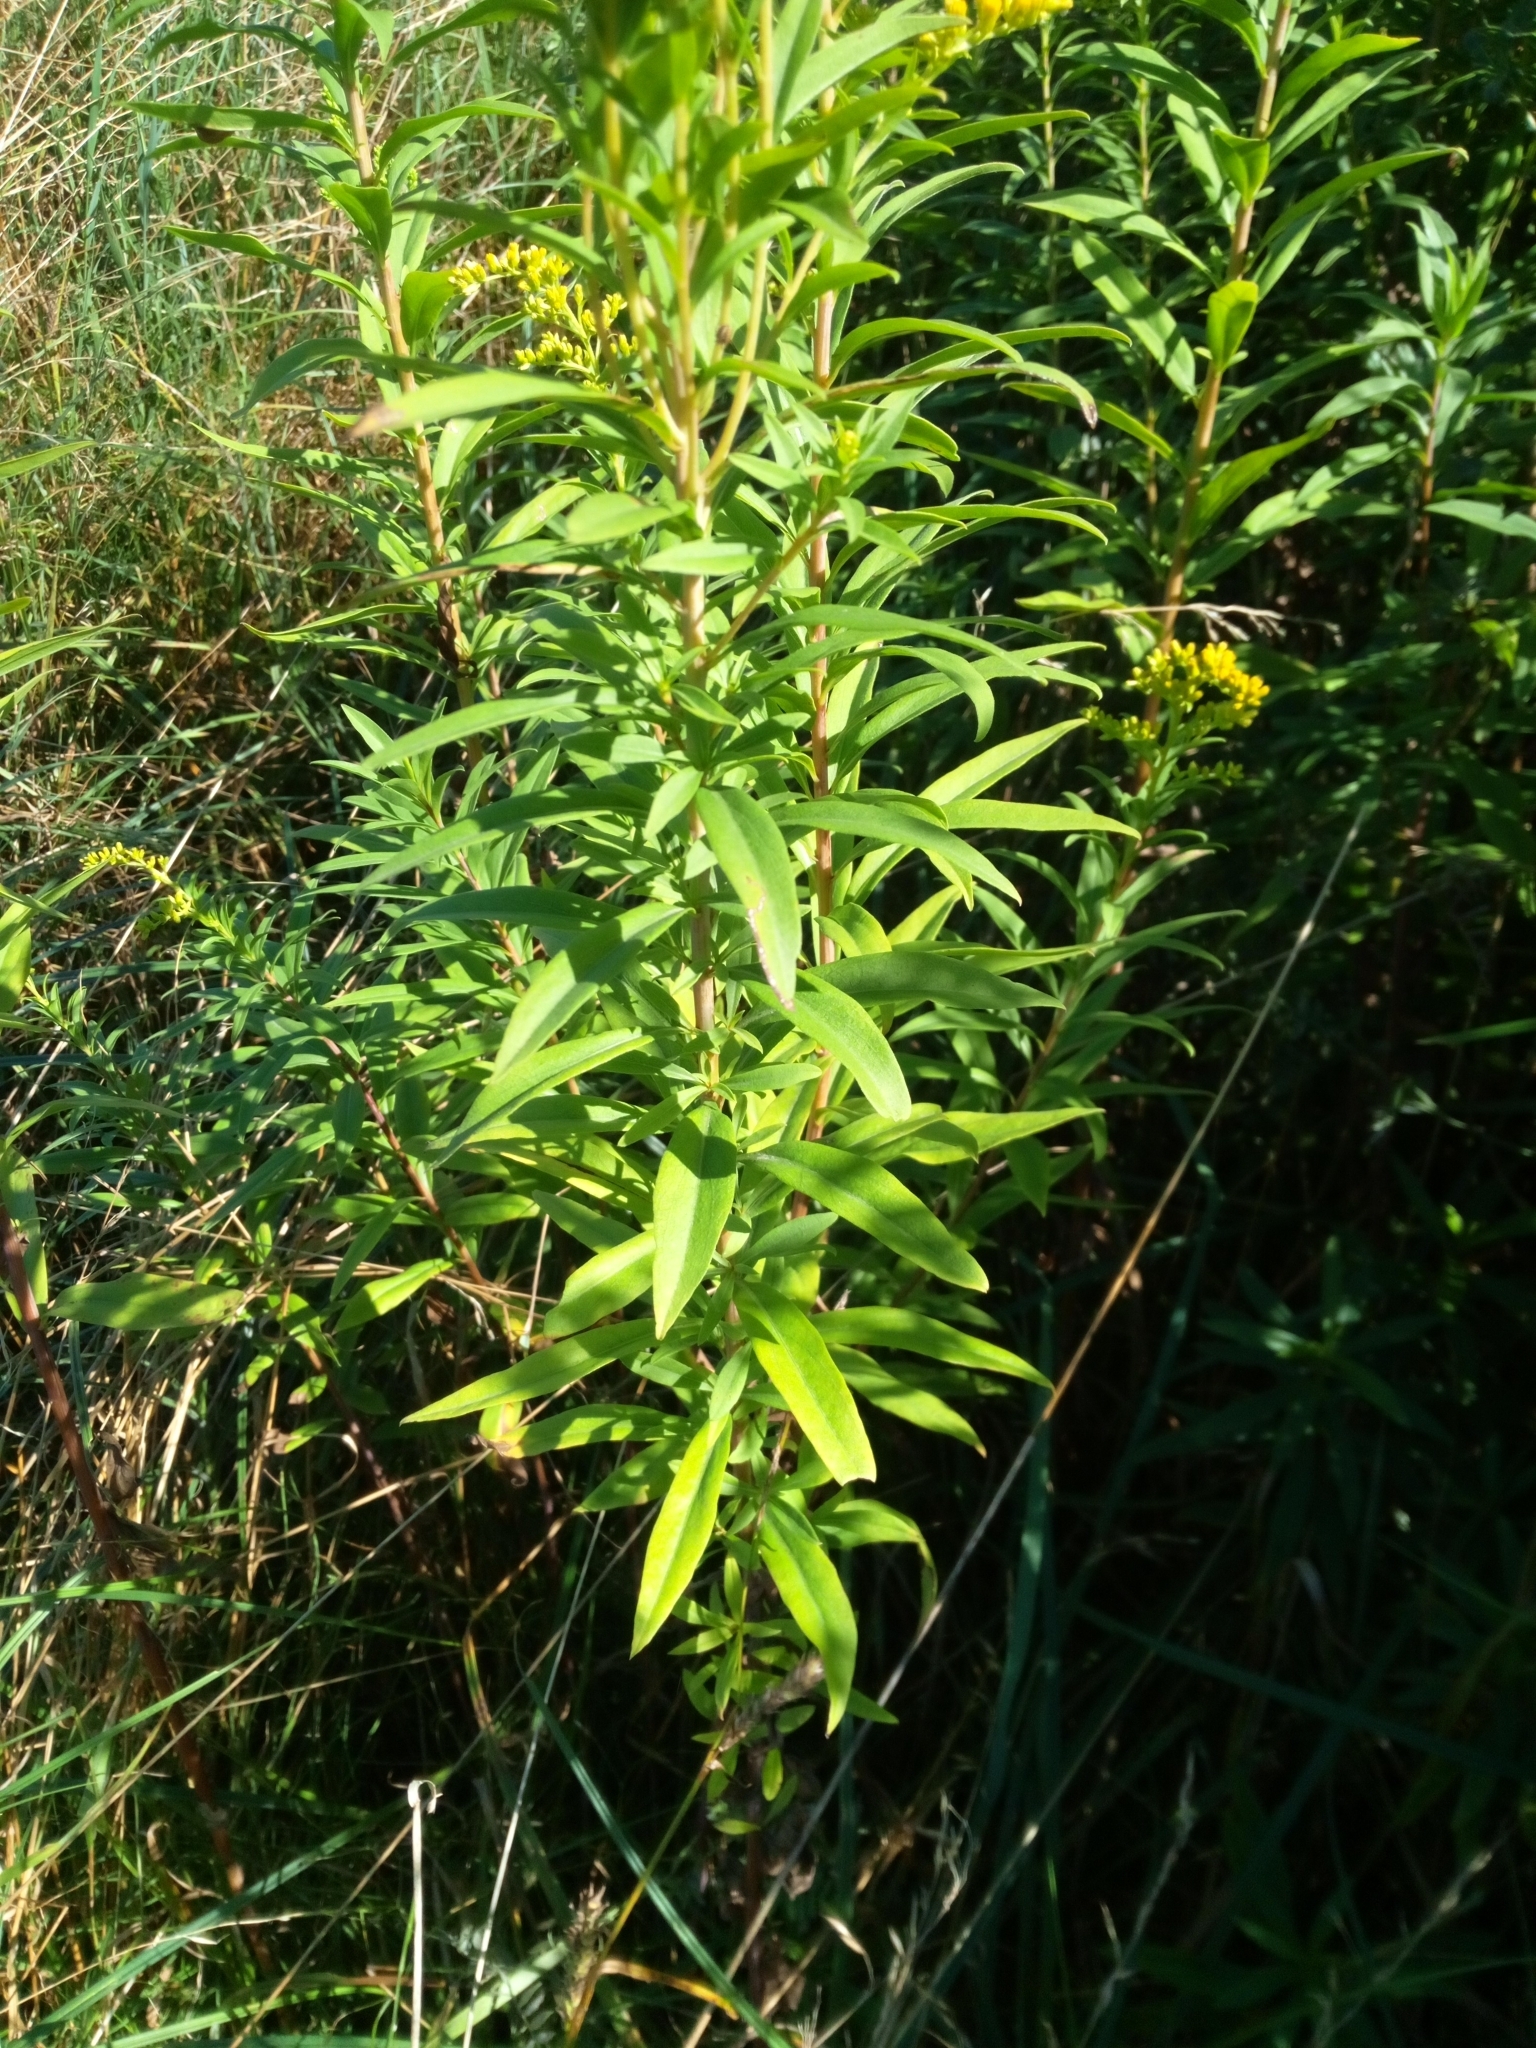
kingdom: Plantae
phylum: Tracheophyta
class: Magnoliopsida
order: Asterales
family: Asteraceae
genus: Solidago
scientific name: Solidago gigantea
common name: Giant goldenrod
